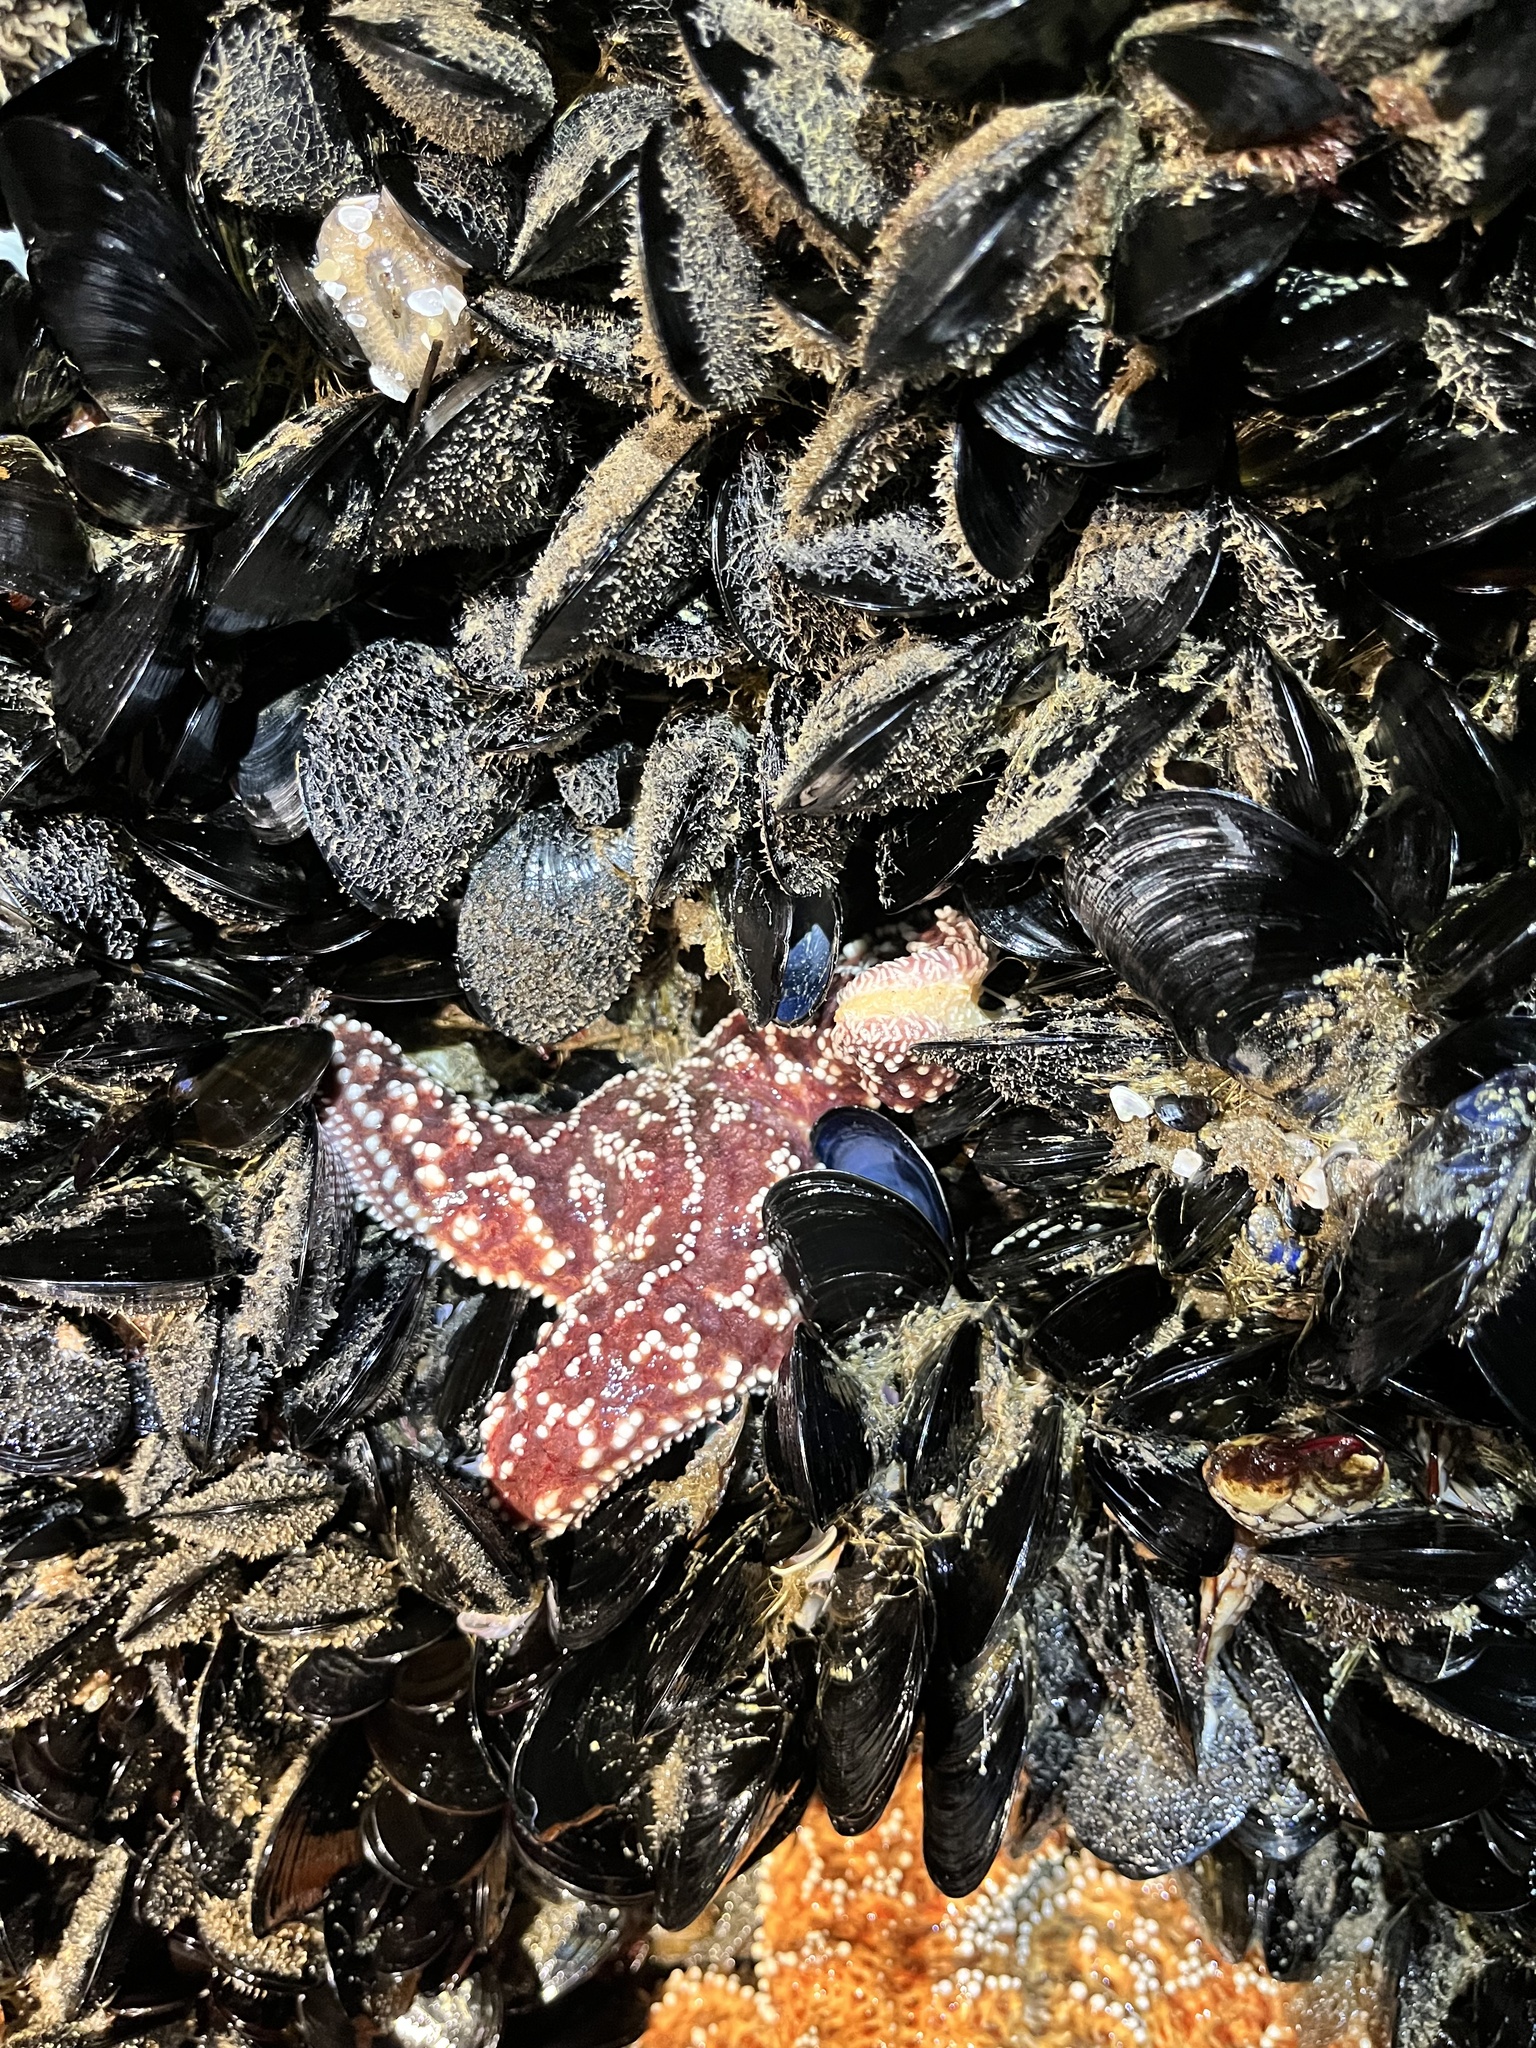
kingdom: Animalia
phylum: Echinodermata
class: Asteroidea
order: Forcipulatida
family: Asteriidae
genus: Pisaster
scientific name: Pisaster ochraceus
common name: Ochre stars
